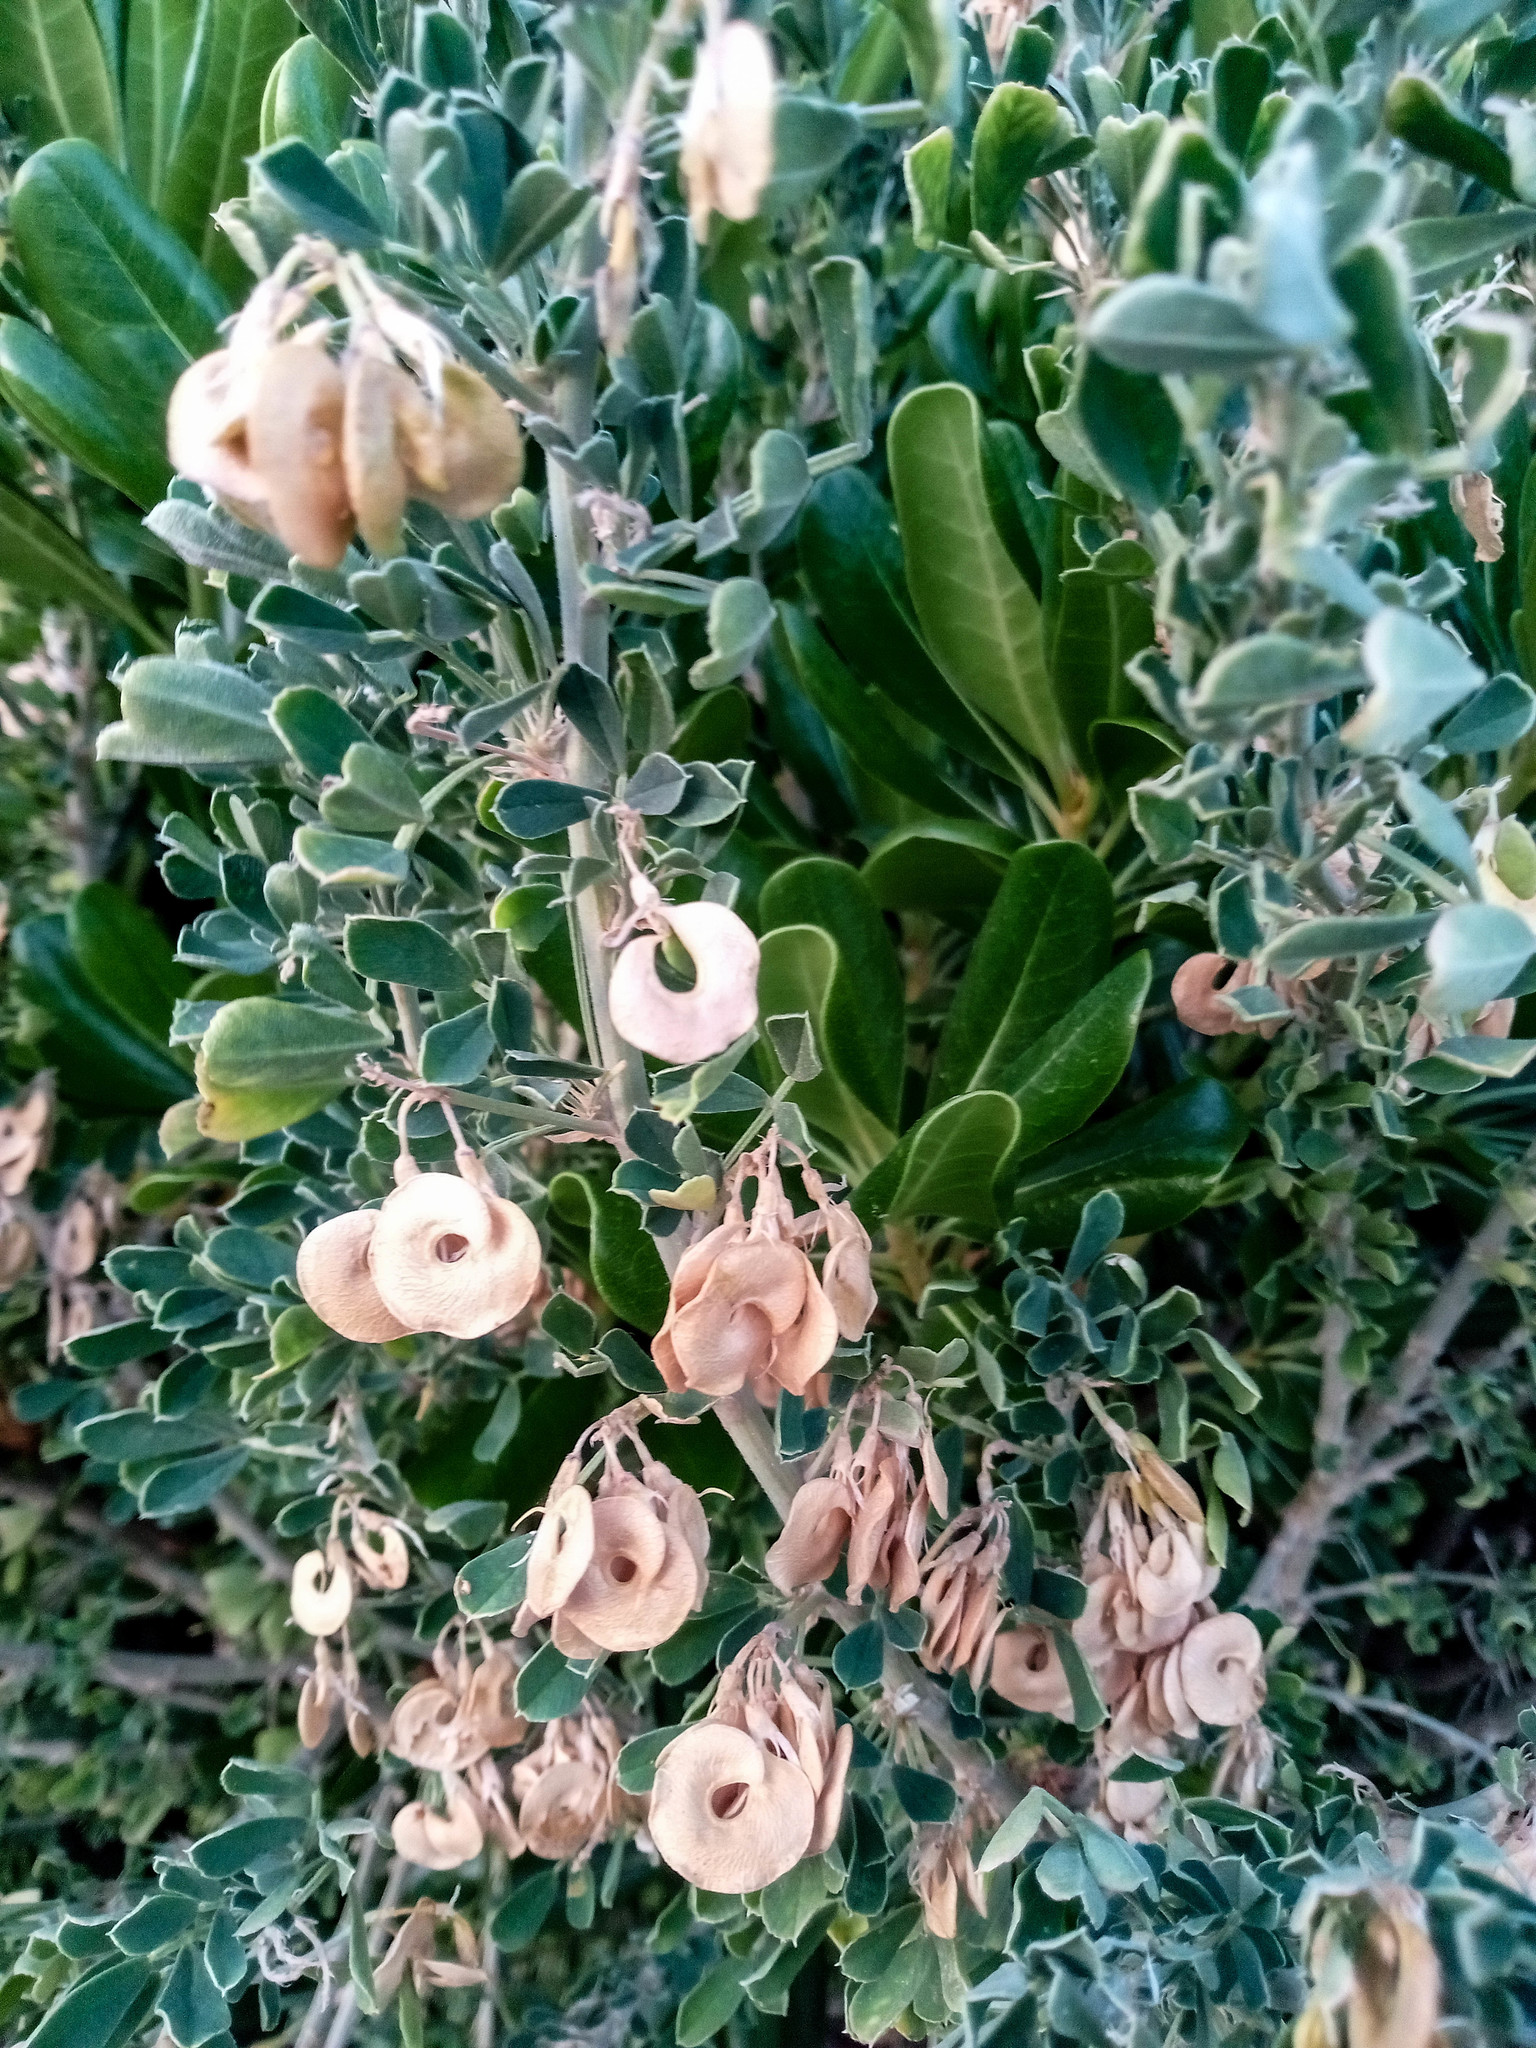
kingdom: Plantae
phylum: Tracheophyta
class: Magnoliopsida
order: Fabales
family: Fabaceae
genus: Medicago
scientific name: Medicago arborea
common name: Moon trefoil
